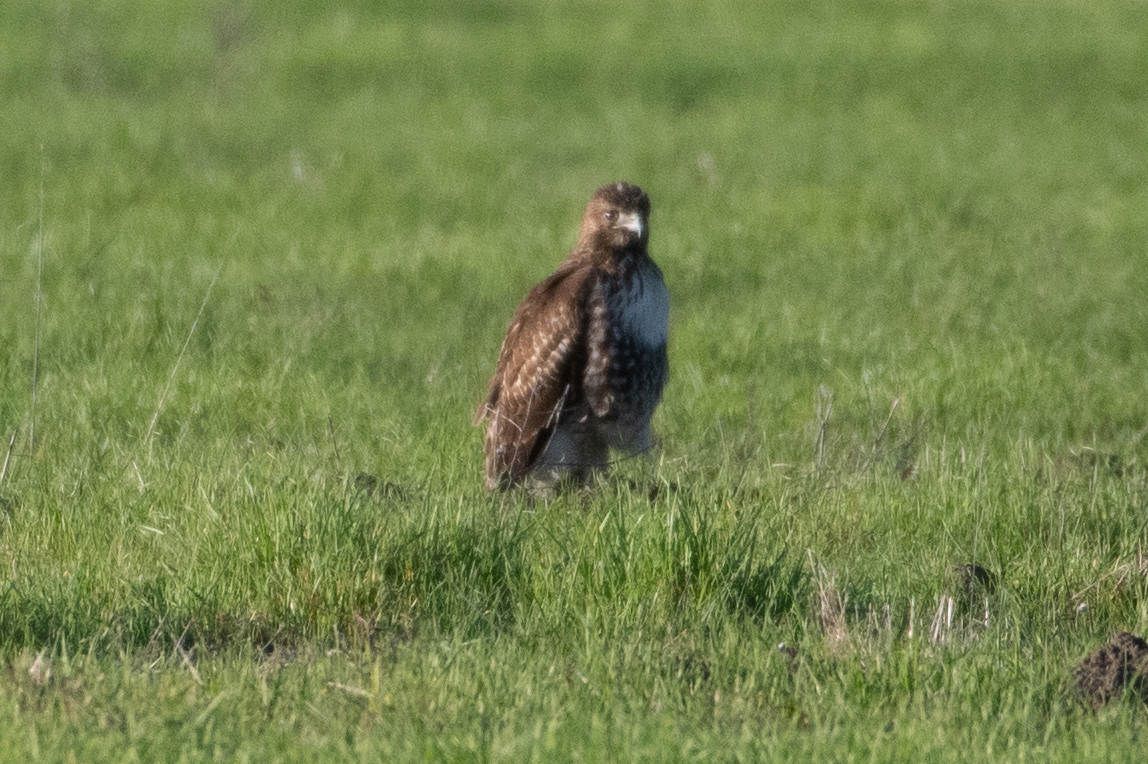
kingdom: Animalia
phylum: Chordata
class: Aves
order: Accipitriformes
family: Accipitridae
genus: Buteo
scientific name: Buteo jamaicensis
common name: Red-tailed hawk
